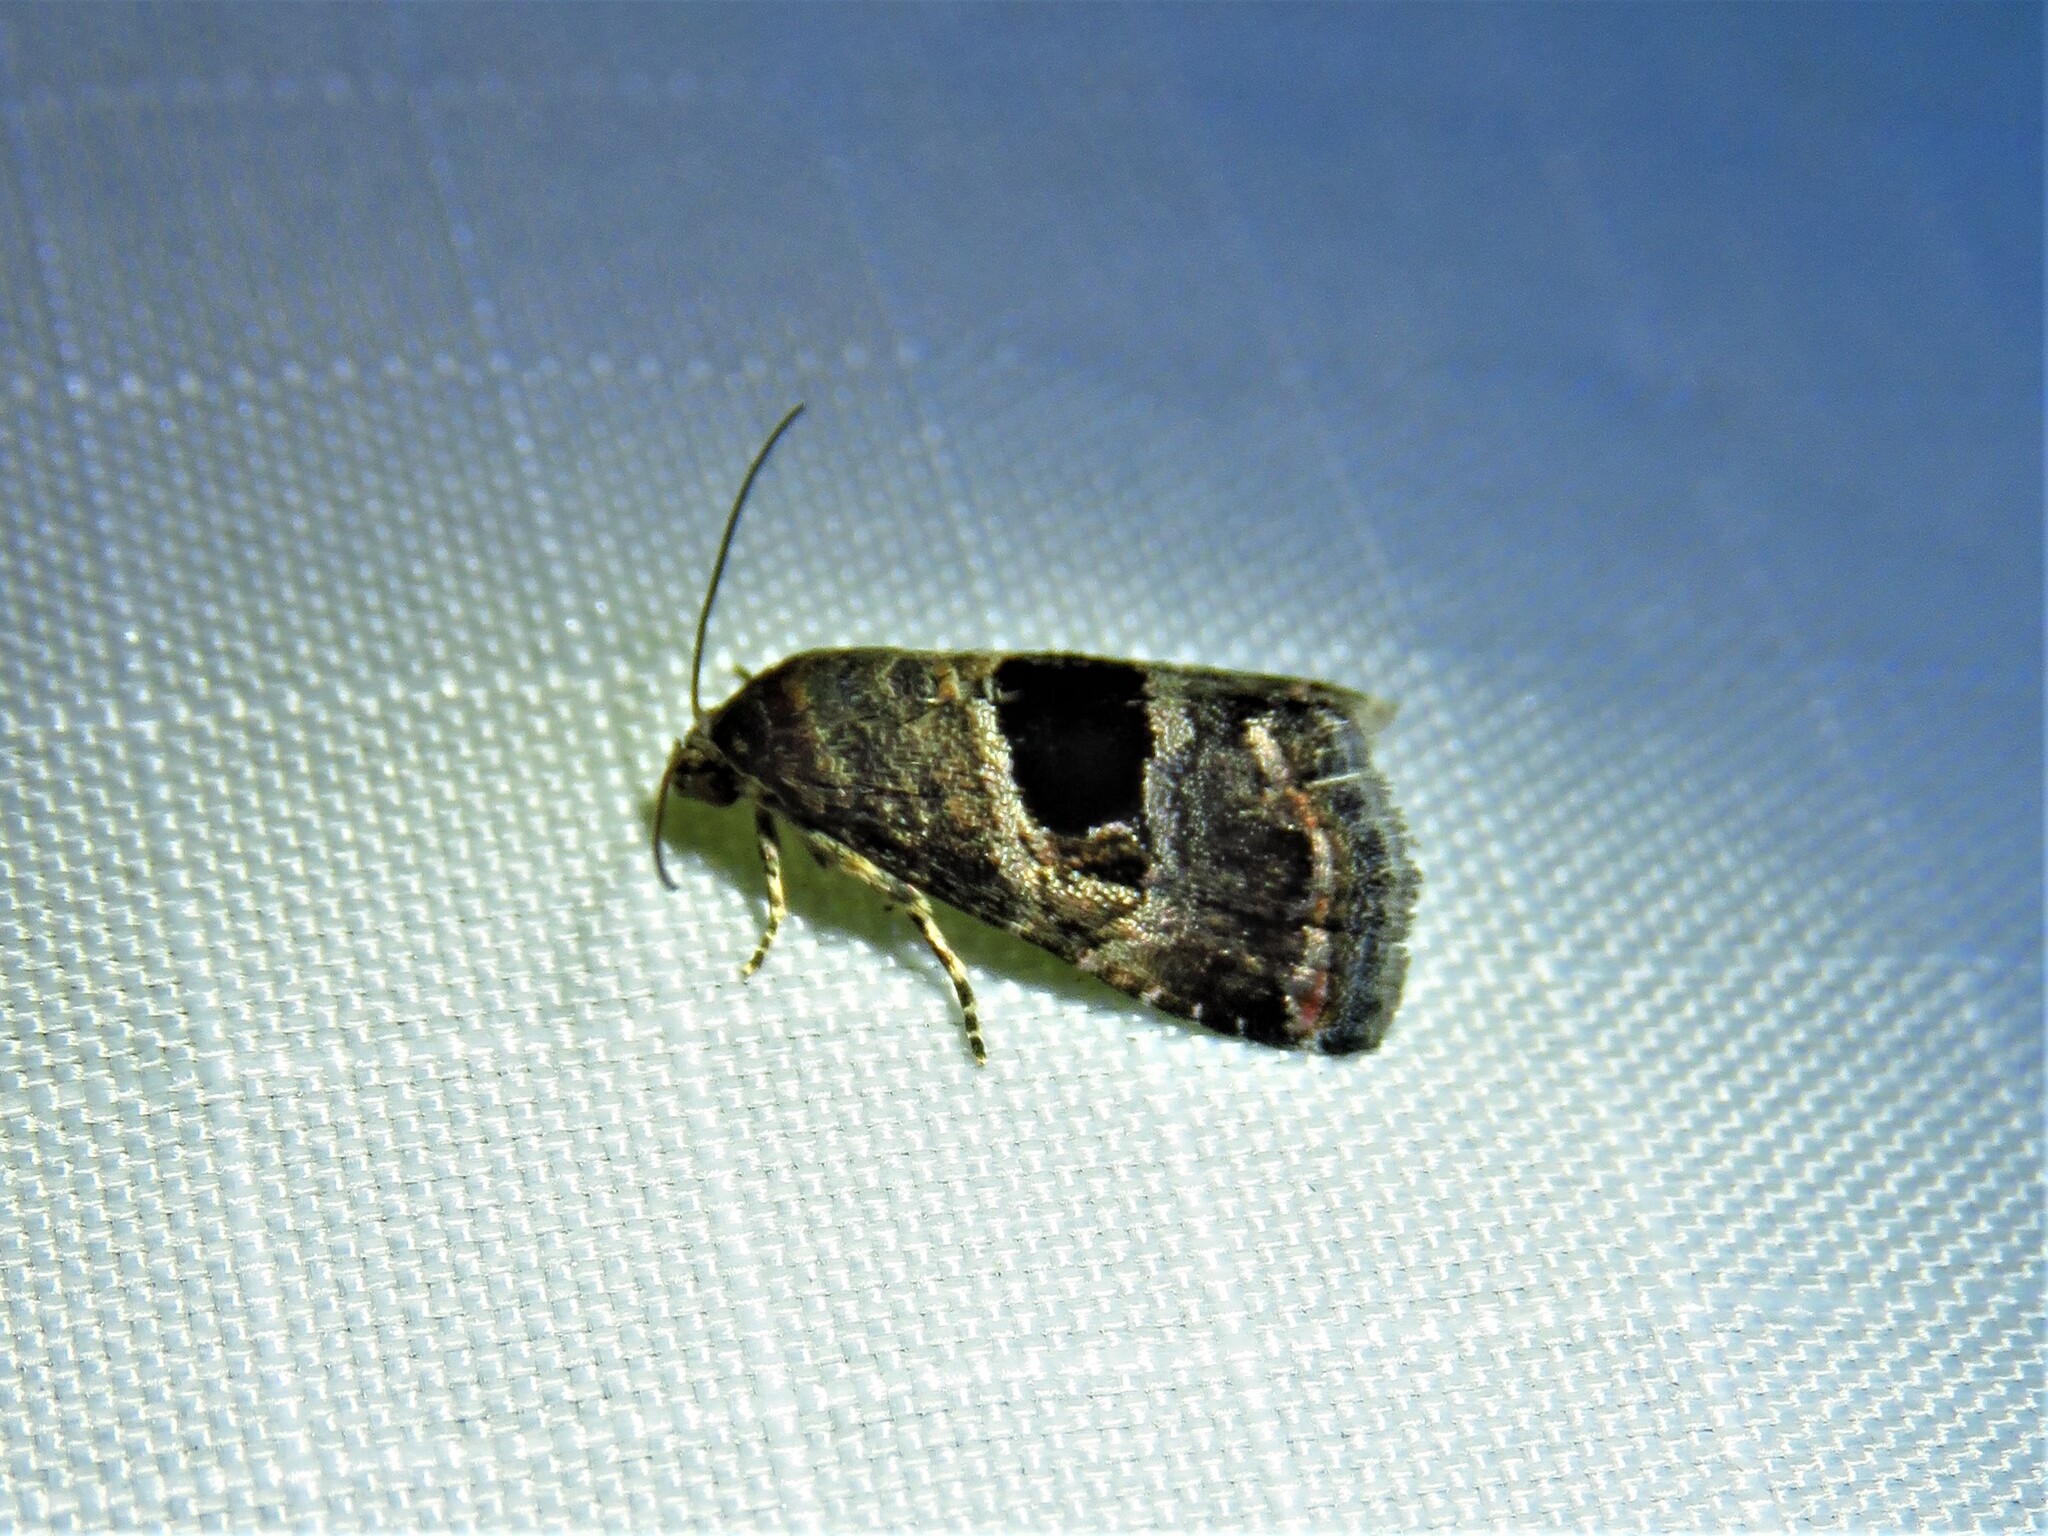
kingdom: Animalia
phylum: Arthropoda
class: Insecta
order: Lepidoptera
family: Noctuidae
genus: Tripudia
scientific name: Tripudia rectangula
